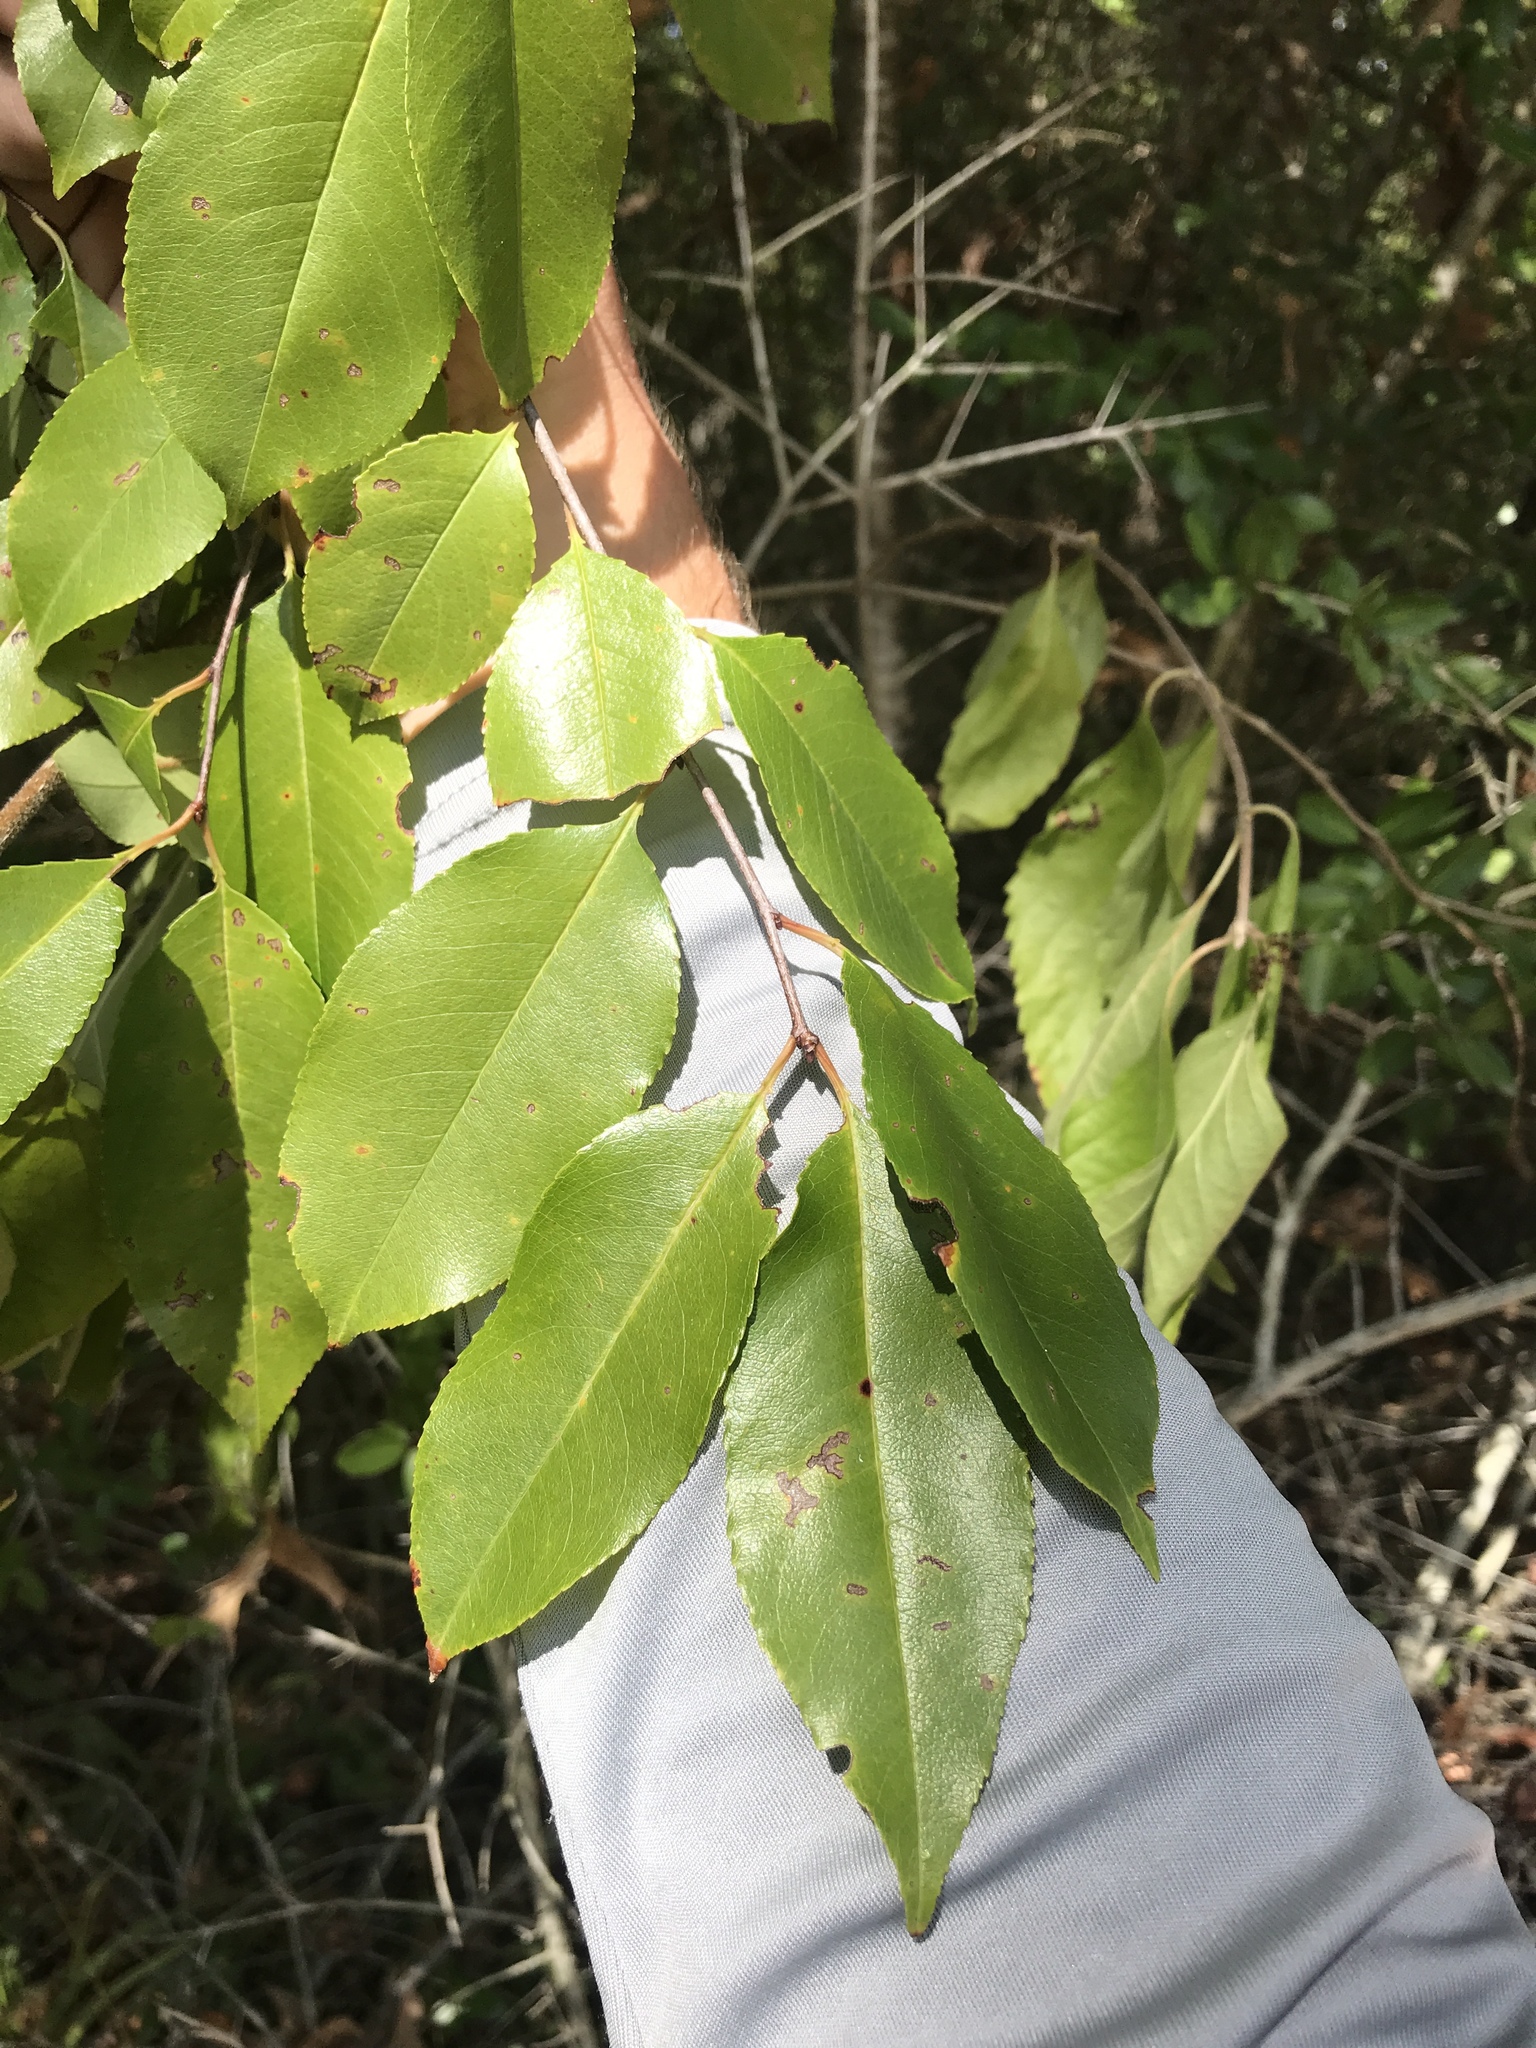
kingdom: Plantae
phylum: Tracheophyta
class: Magnoliopsida
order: Rosales
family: Rosaceae
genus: Prunus
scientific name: Prunus serotina
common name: Black cherry
